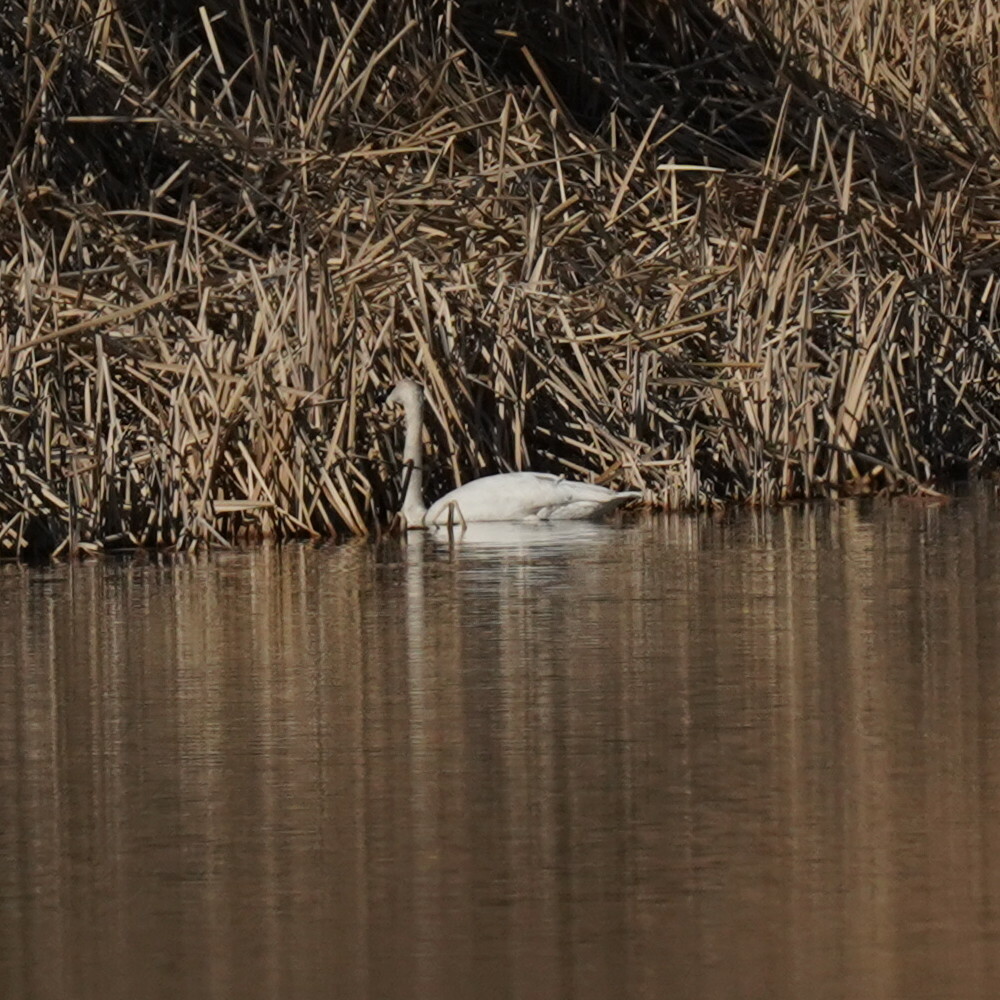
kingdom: Animalia
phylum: Chordata
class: Aves
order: Anseriformes
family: Anatidae
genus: Cygnus
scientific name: Cygnus buccinator
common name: Trumpeter swan
